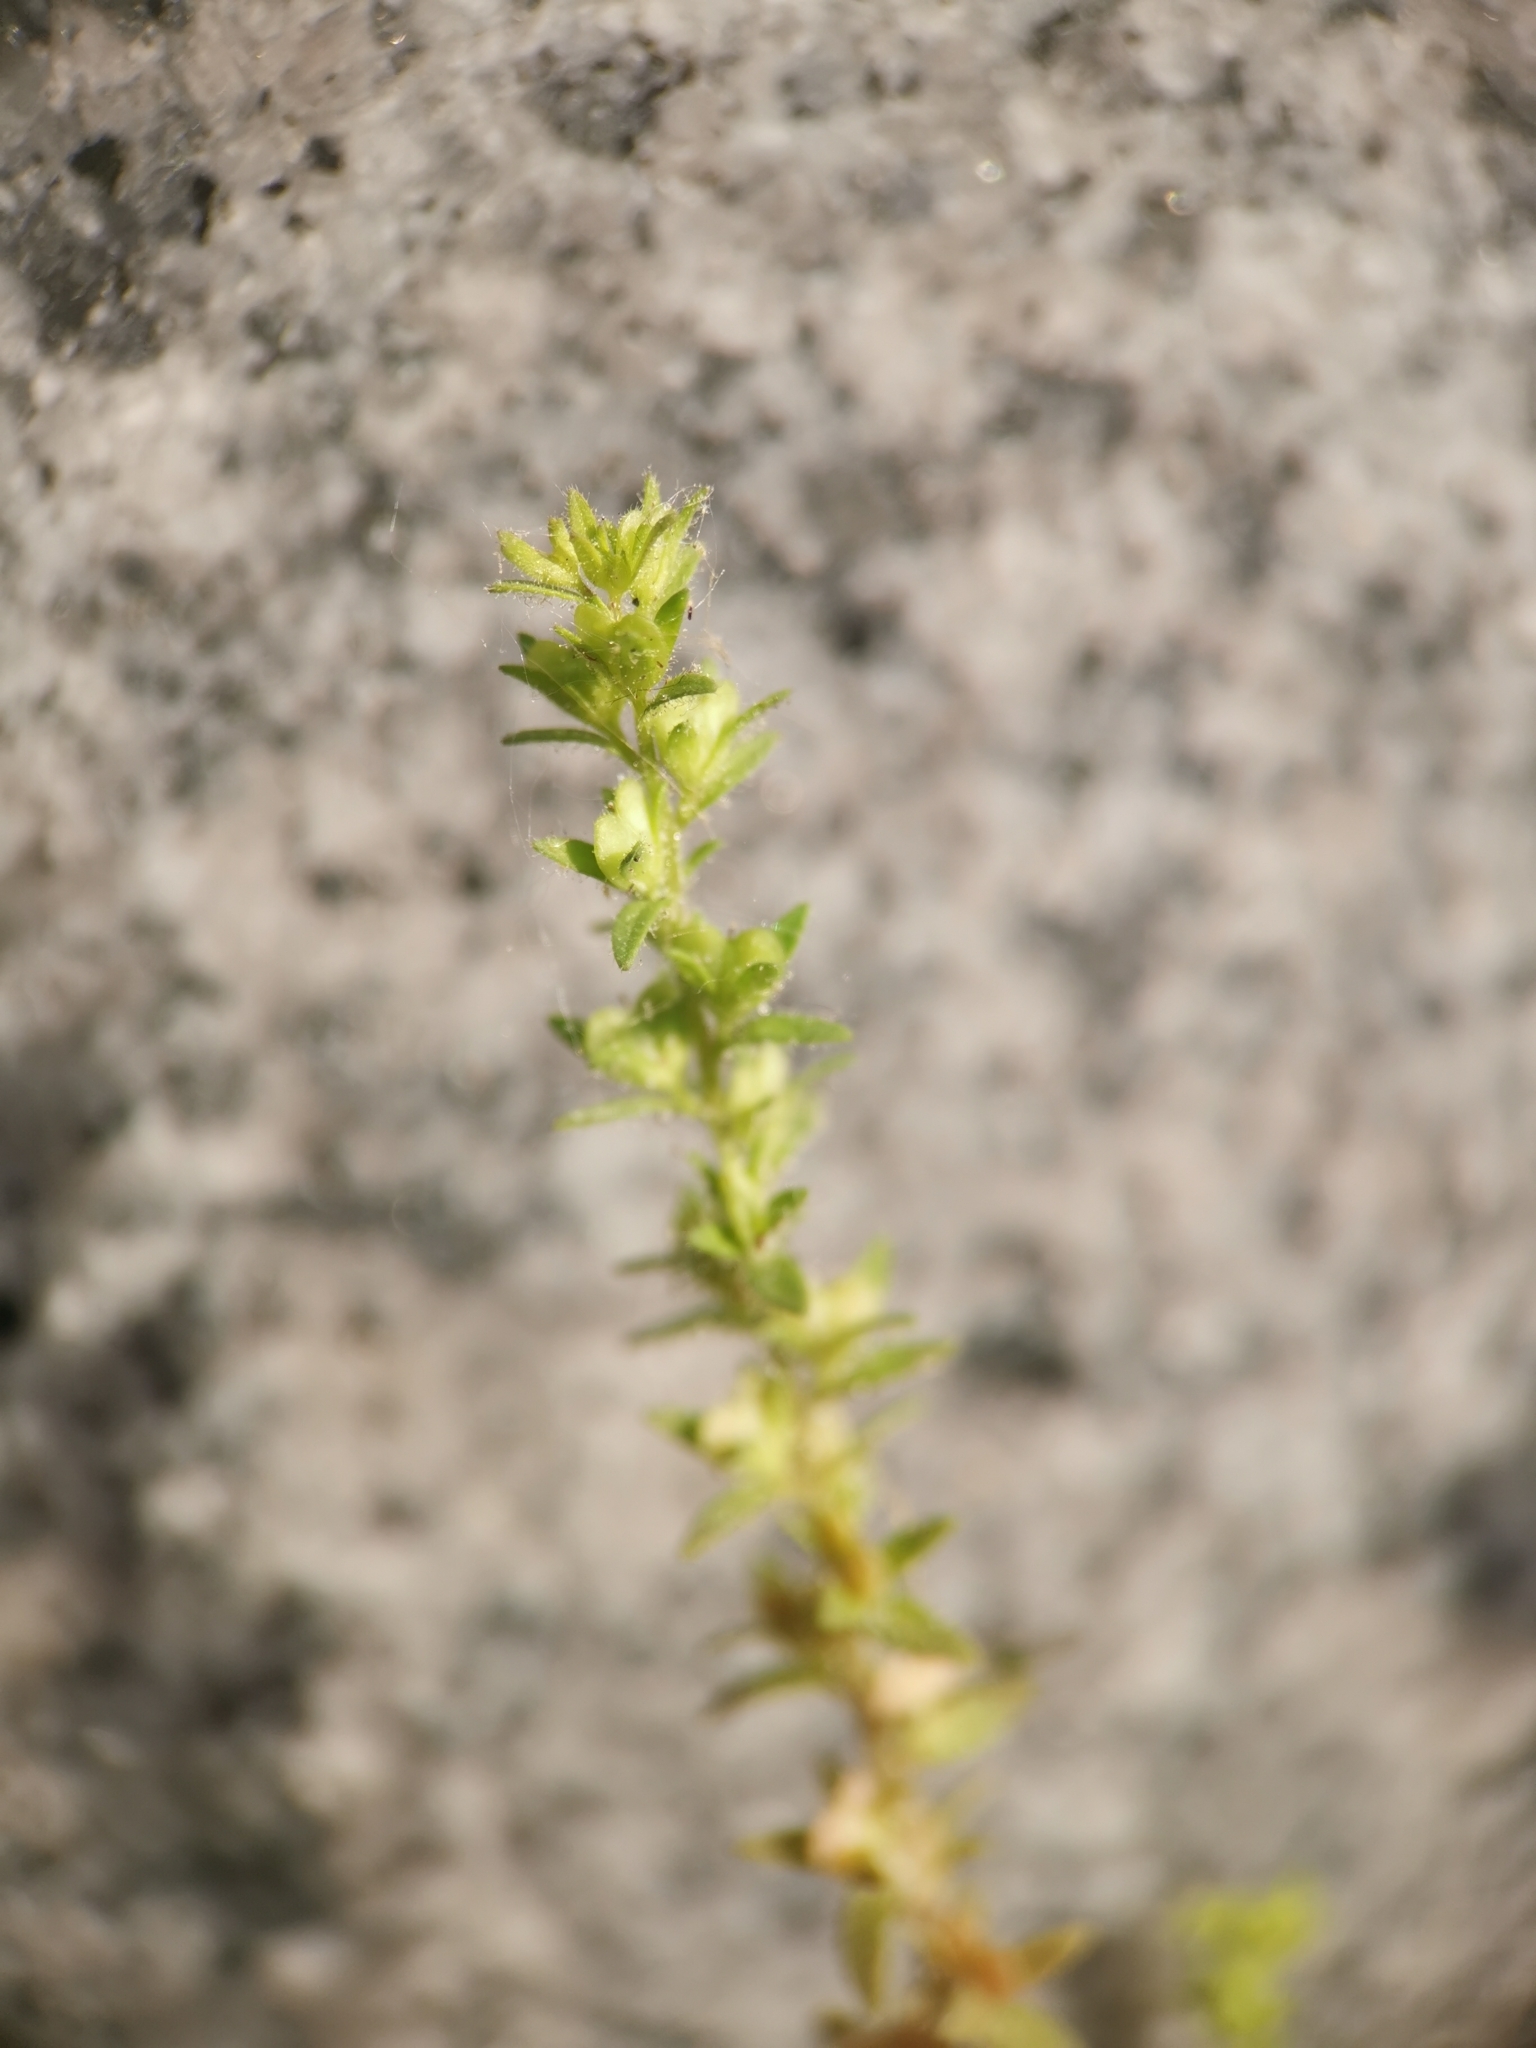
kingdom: Plantae
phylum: Tracheophyta
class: Magnoliopsida
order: Lamiales
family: Plantaginaceae
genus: Veronica
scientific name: Veronica arvensis
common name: Corn speedwell
